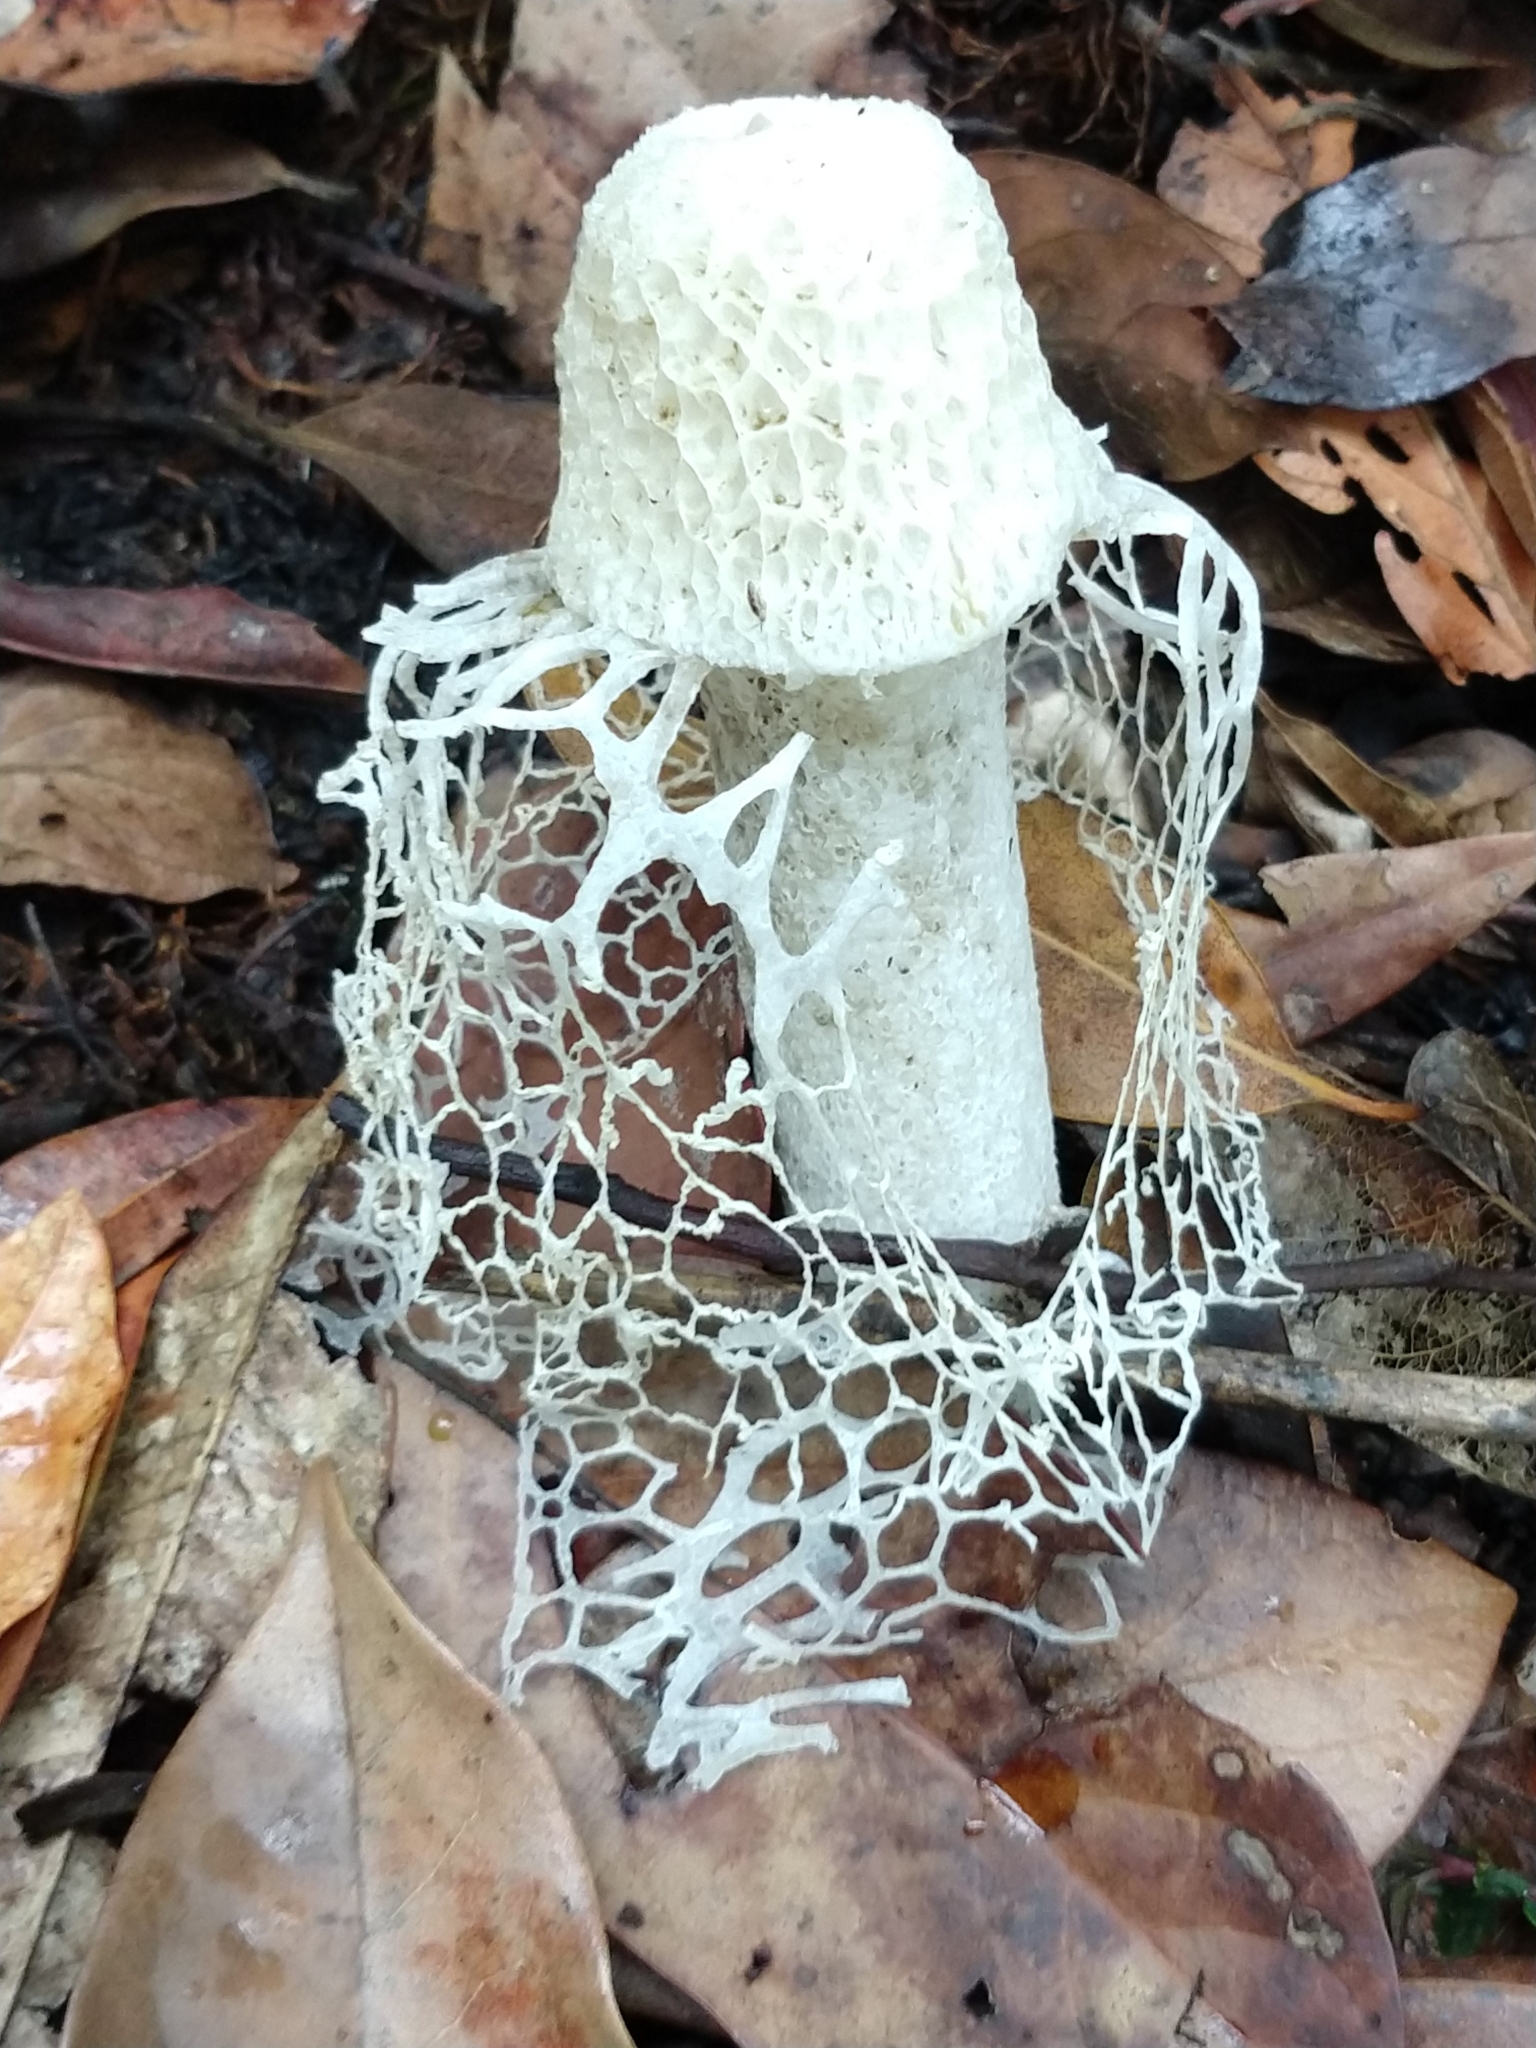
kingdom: Fungi
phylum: Basidiomycota
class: Agaricomycetes
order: Phallales
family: Phallaceae
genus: Phallus
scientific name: Phallus indusiatus
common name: Bridal veil stinkhorn
